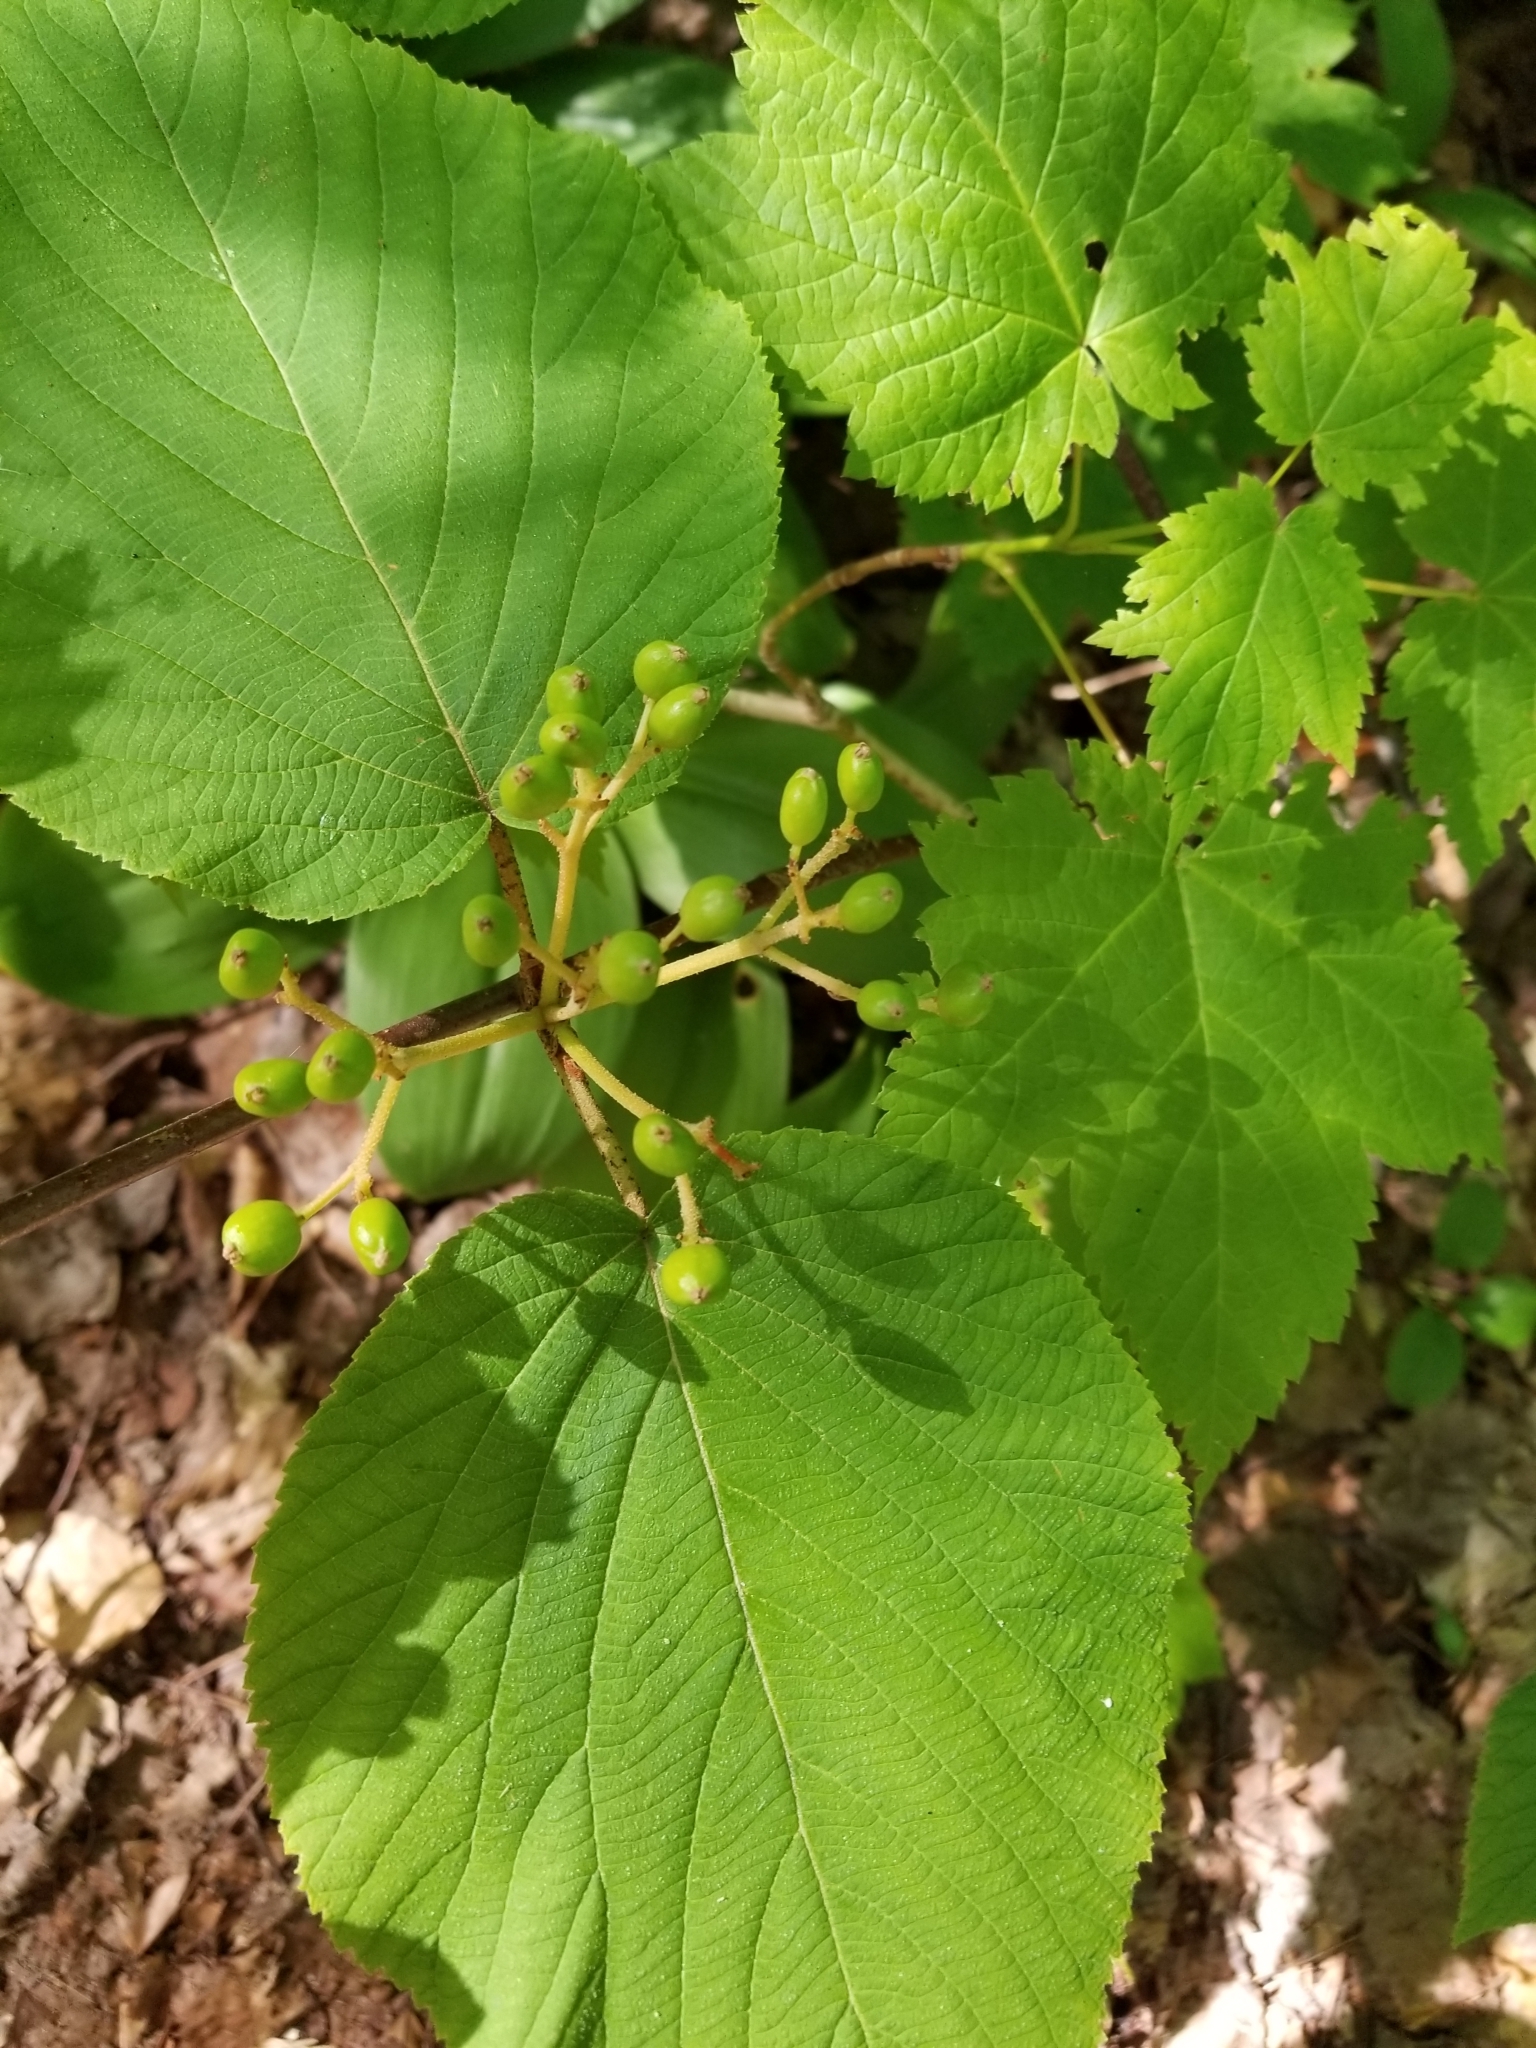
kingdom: Plantae
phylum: Tracheophyta
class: Magnoliopsida
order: Dipsacales
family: Viburnaceae
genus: Viburnum
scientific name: Viburnum lantanoides
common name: Hobblebush
